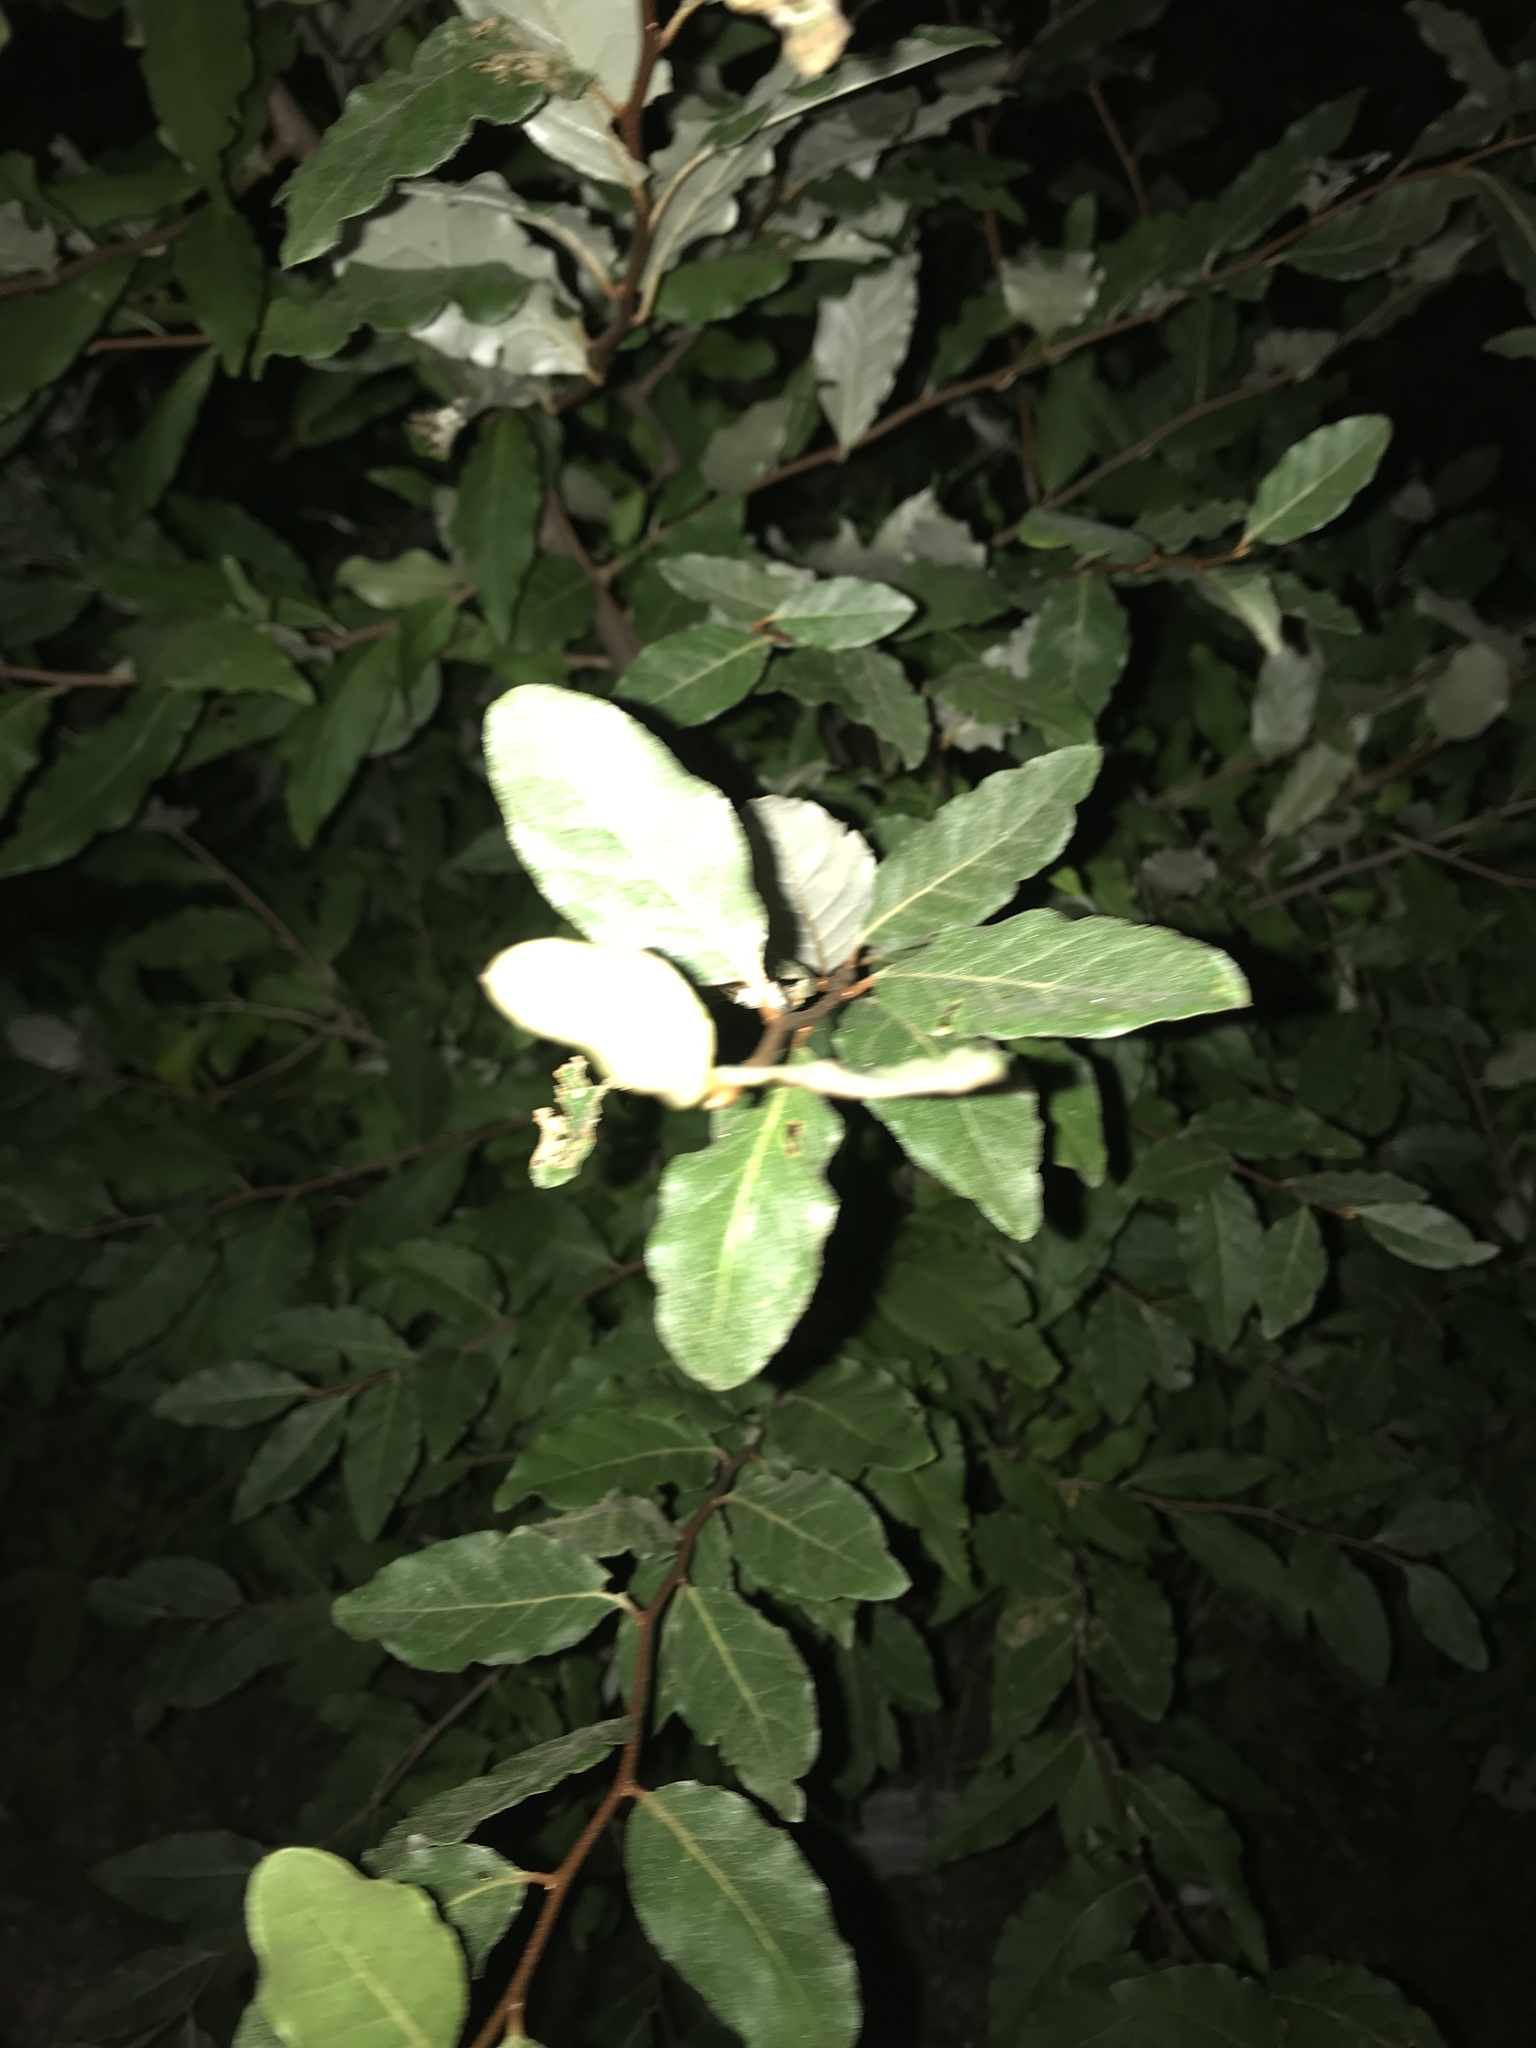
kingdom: Plantae
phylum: Tracheophyta
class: Magnoliopsida
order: Rosales
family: Elaeagnaceae
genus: Elaeagnus
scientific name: Elaeagnus umbellata
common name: Autumn olive
